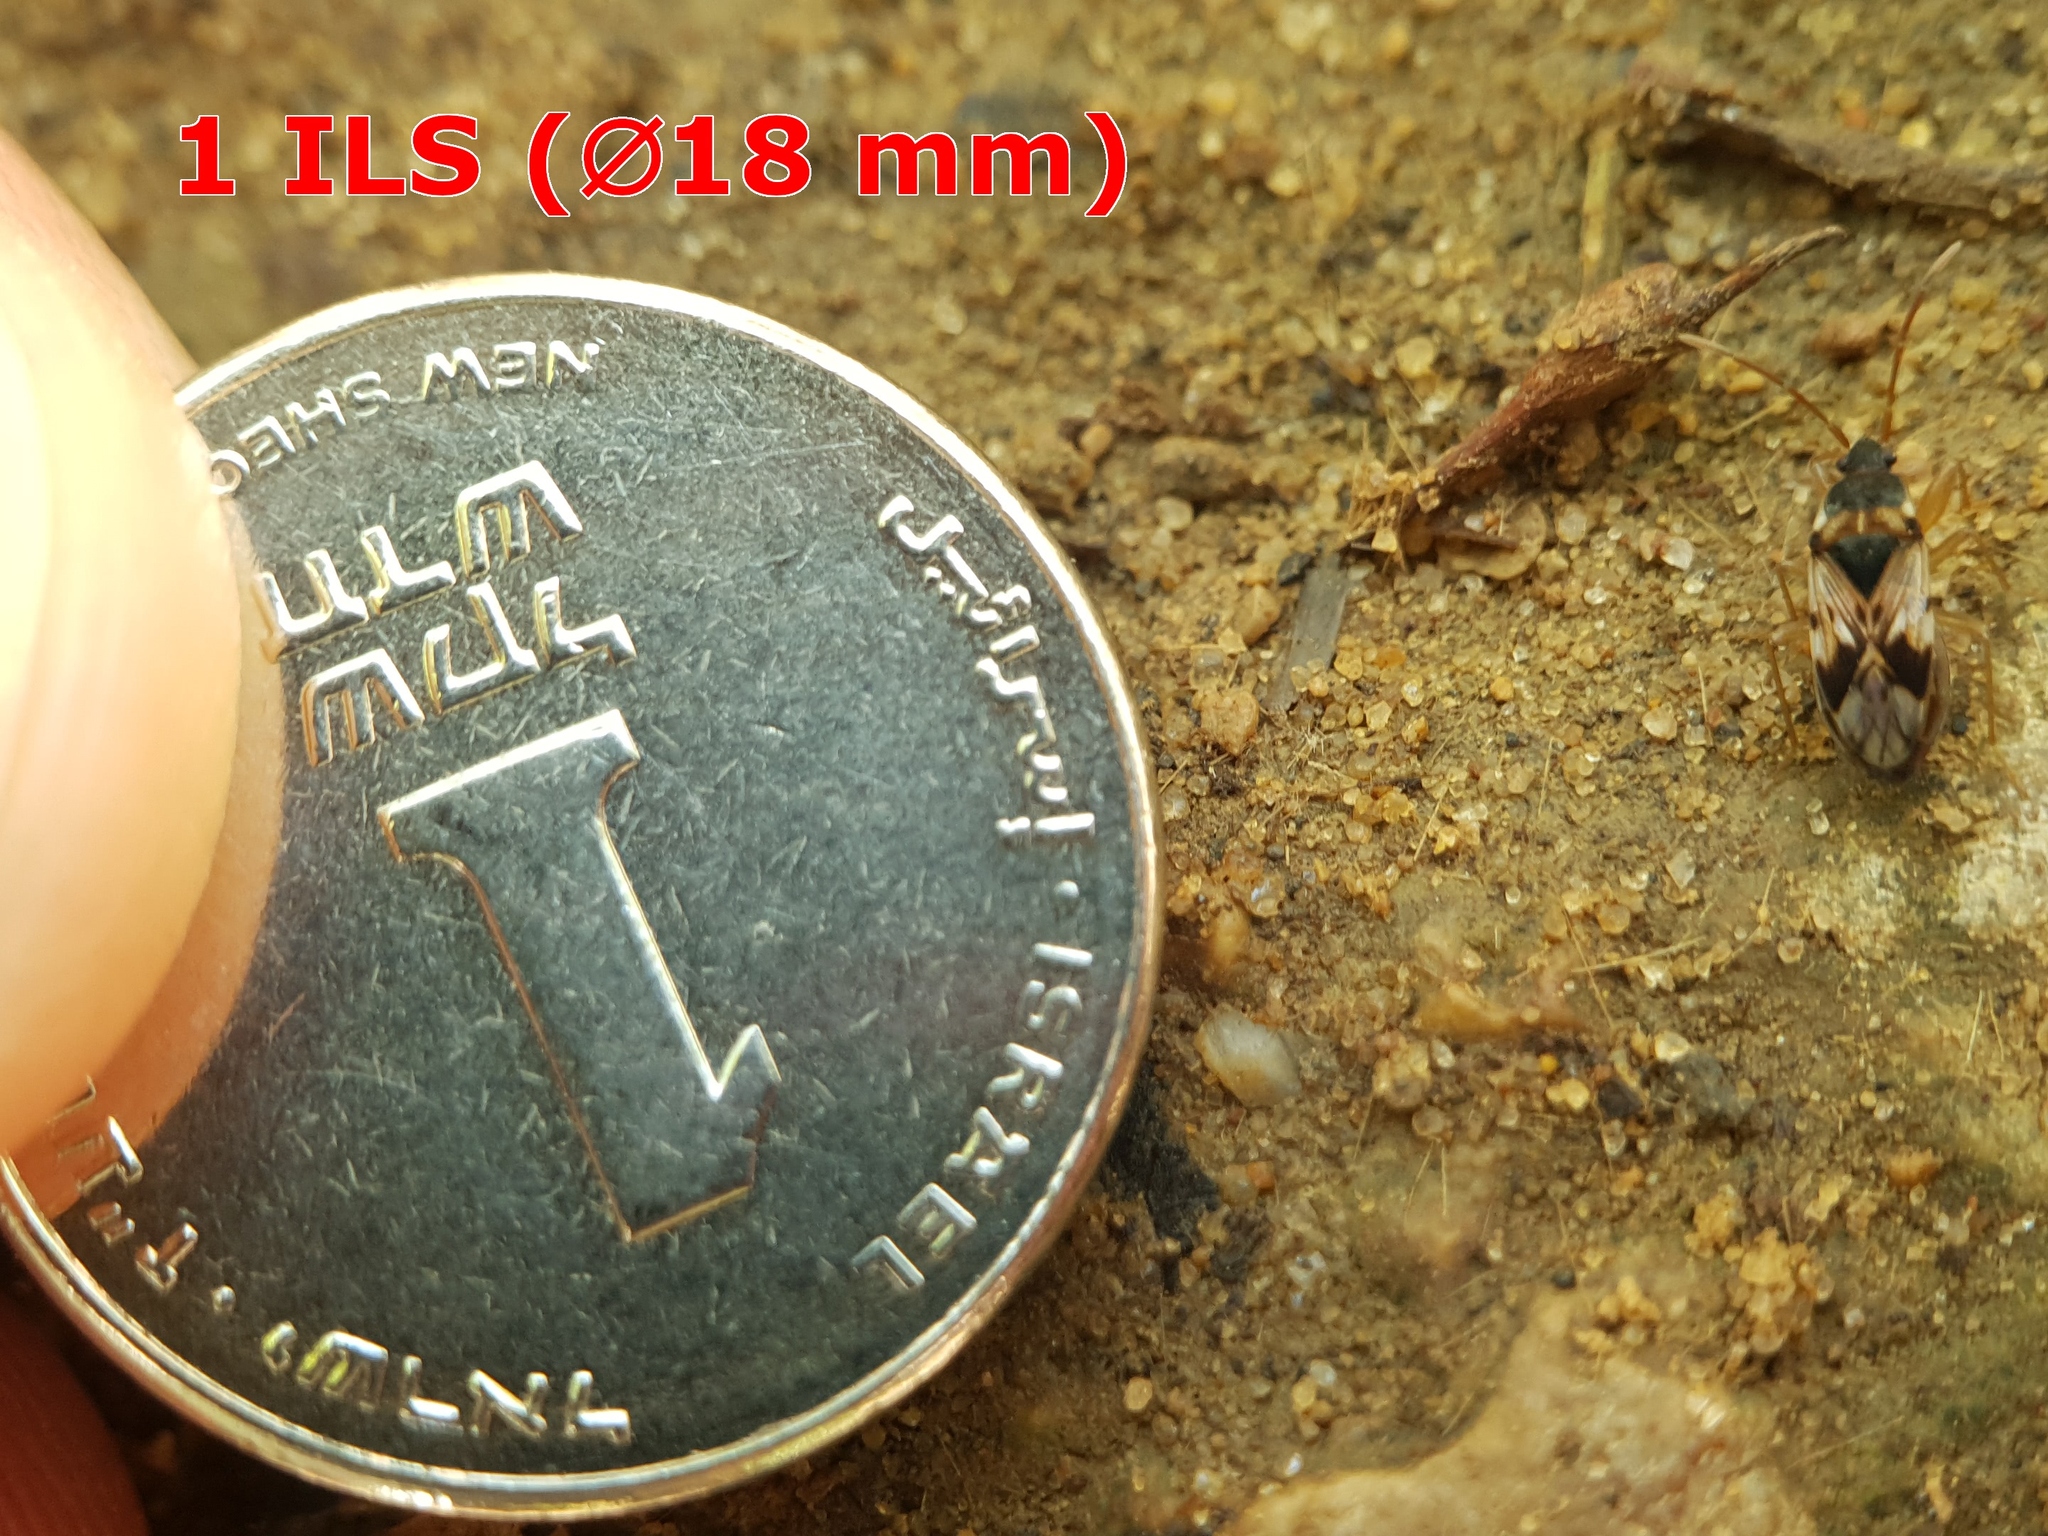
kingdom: Animalia
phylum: Arthropoda
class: Insecta
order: Hemiptera
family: Rhyparochromidae
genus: Scolopostethus
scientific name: Scolopostethus pictus
